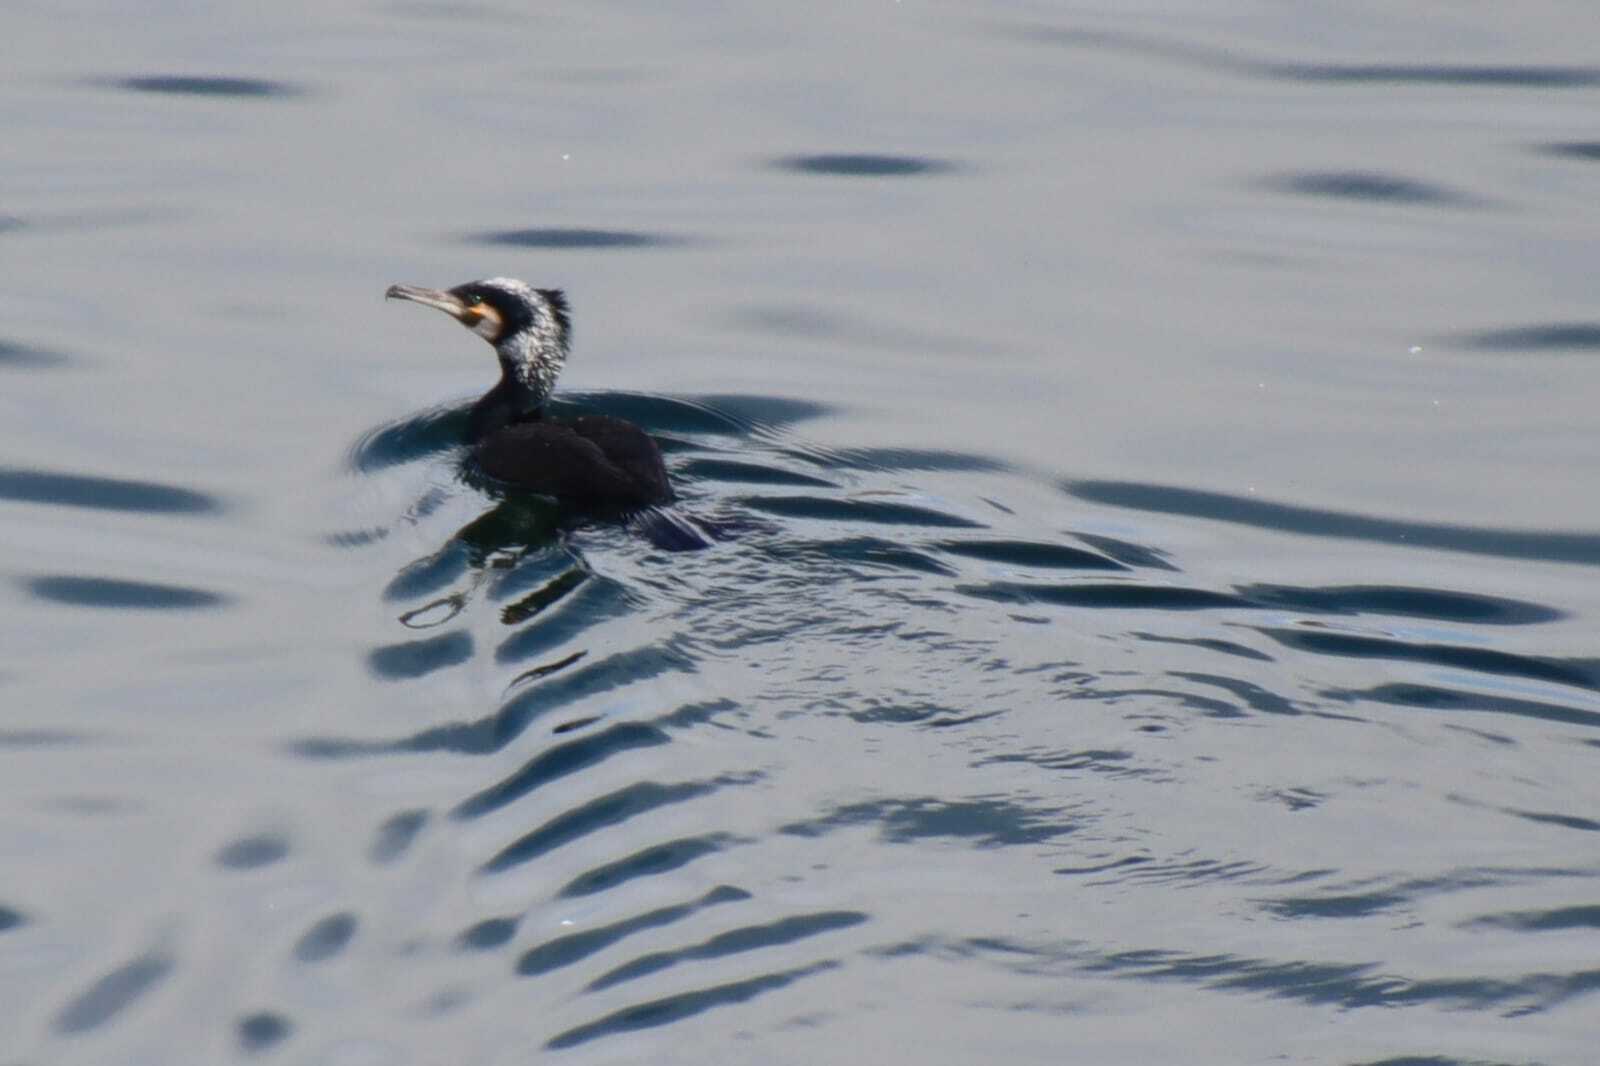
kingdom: Animalia
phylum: Chordata
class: Aves
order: Suliformes
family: Phalacrocoracidae
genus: Phalacrocorax
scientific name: Phalacrocorax carbo
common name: Great cormorant
